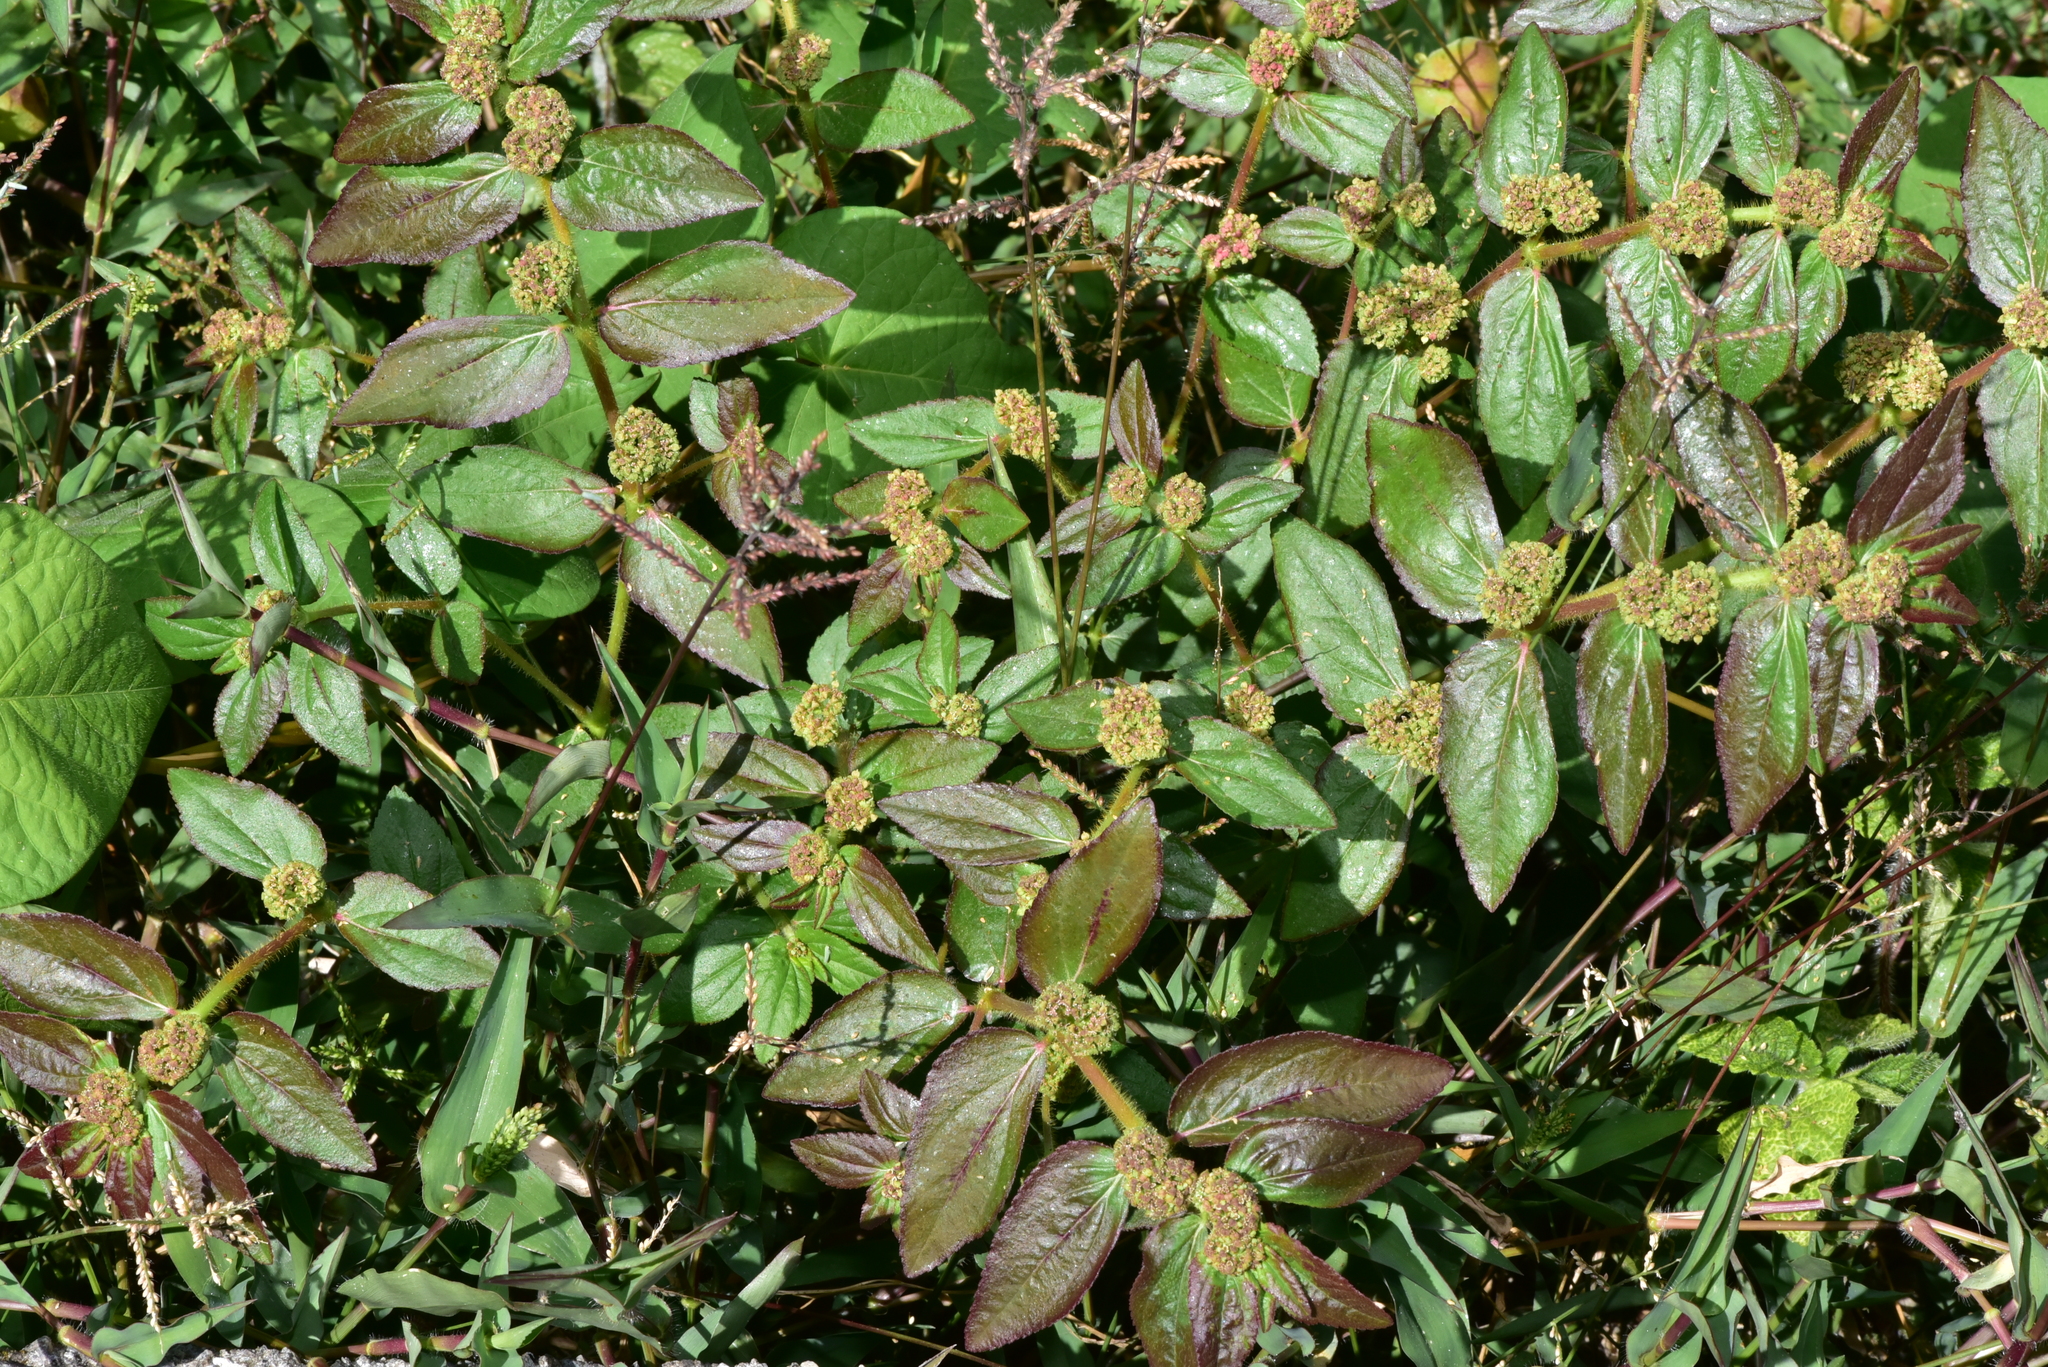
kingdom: Plantae
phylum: Tracheophyta
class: Magnoliopsida
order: Malpighiales
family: Euphorbiaceae
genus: Euphorbia
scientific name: Euphorbia hirta
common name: Pillpod sandmat
